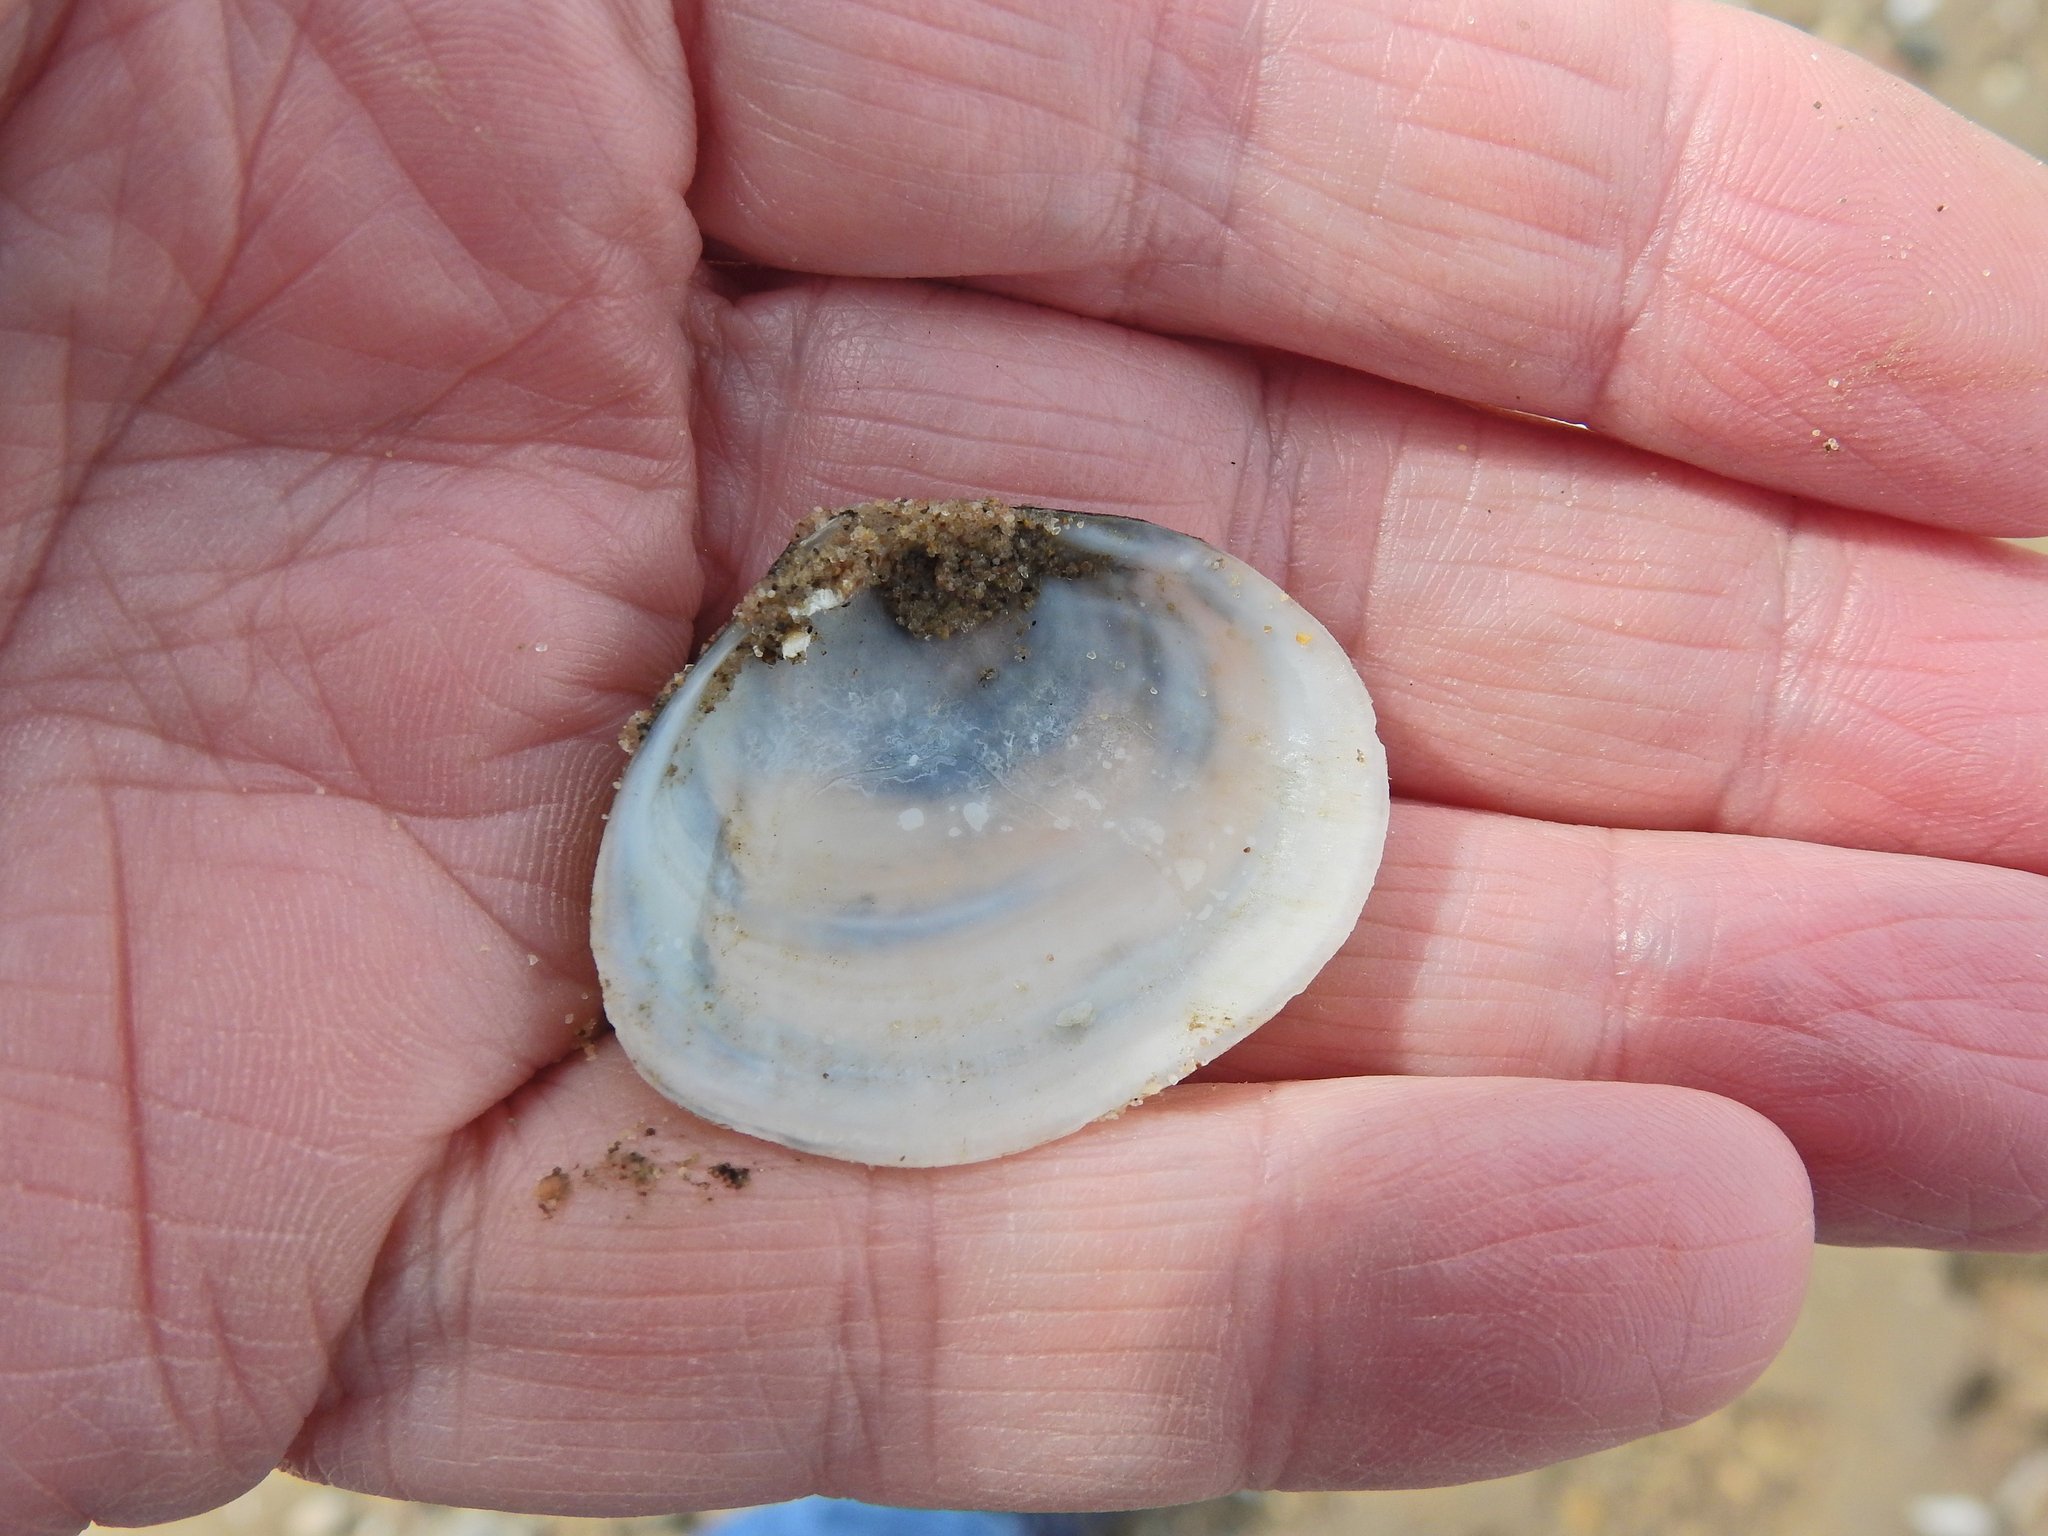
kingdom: Animalia
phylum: Mollusca
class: Bivalvia
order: Cardiida
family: Semelidae
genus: Scrobicularia
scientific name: Scrobicularia plana
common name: Peppery furrow shell
